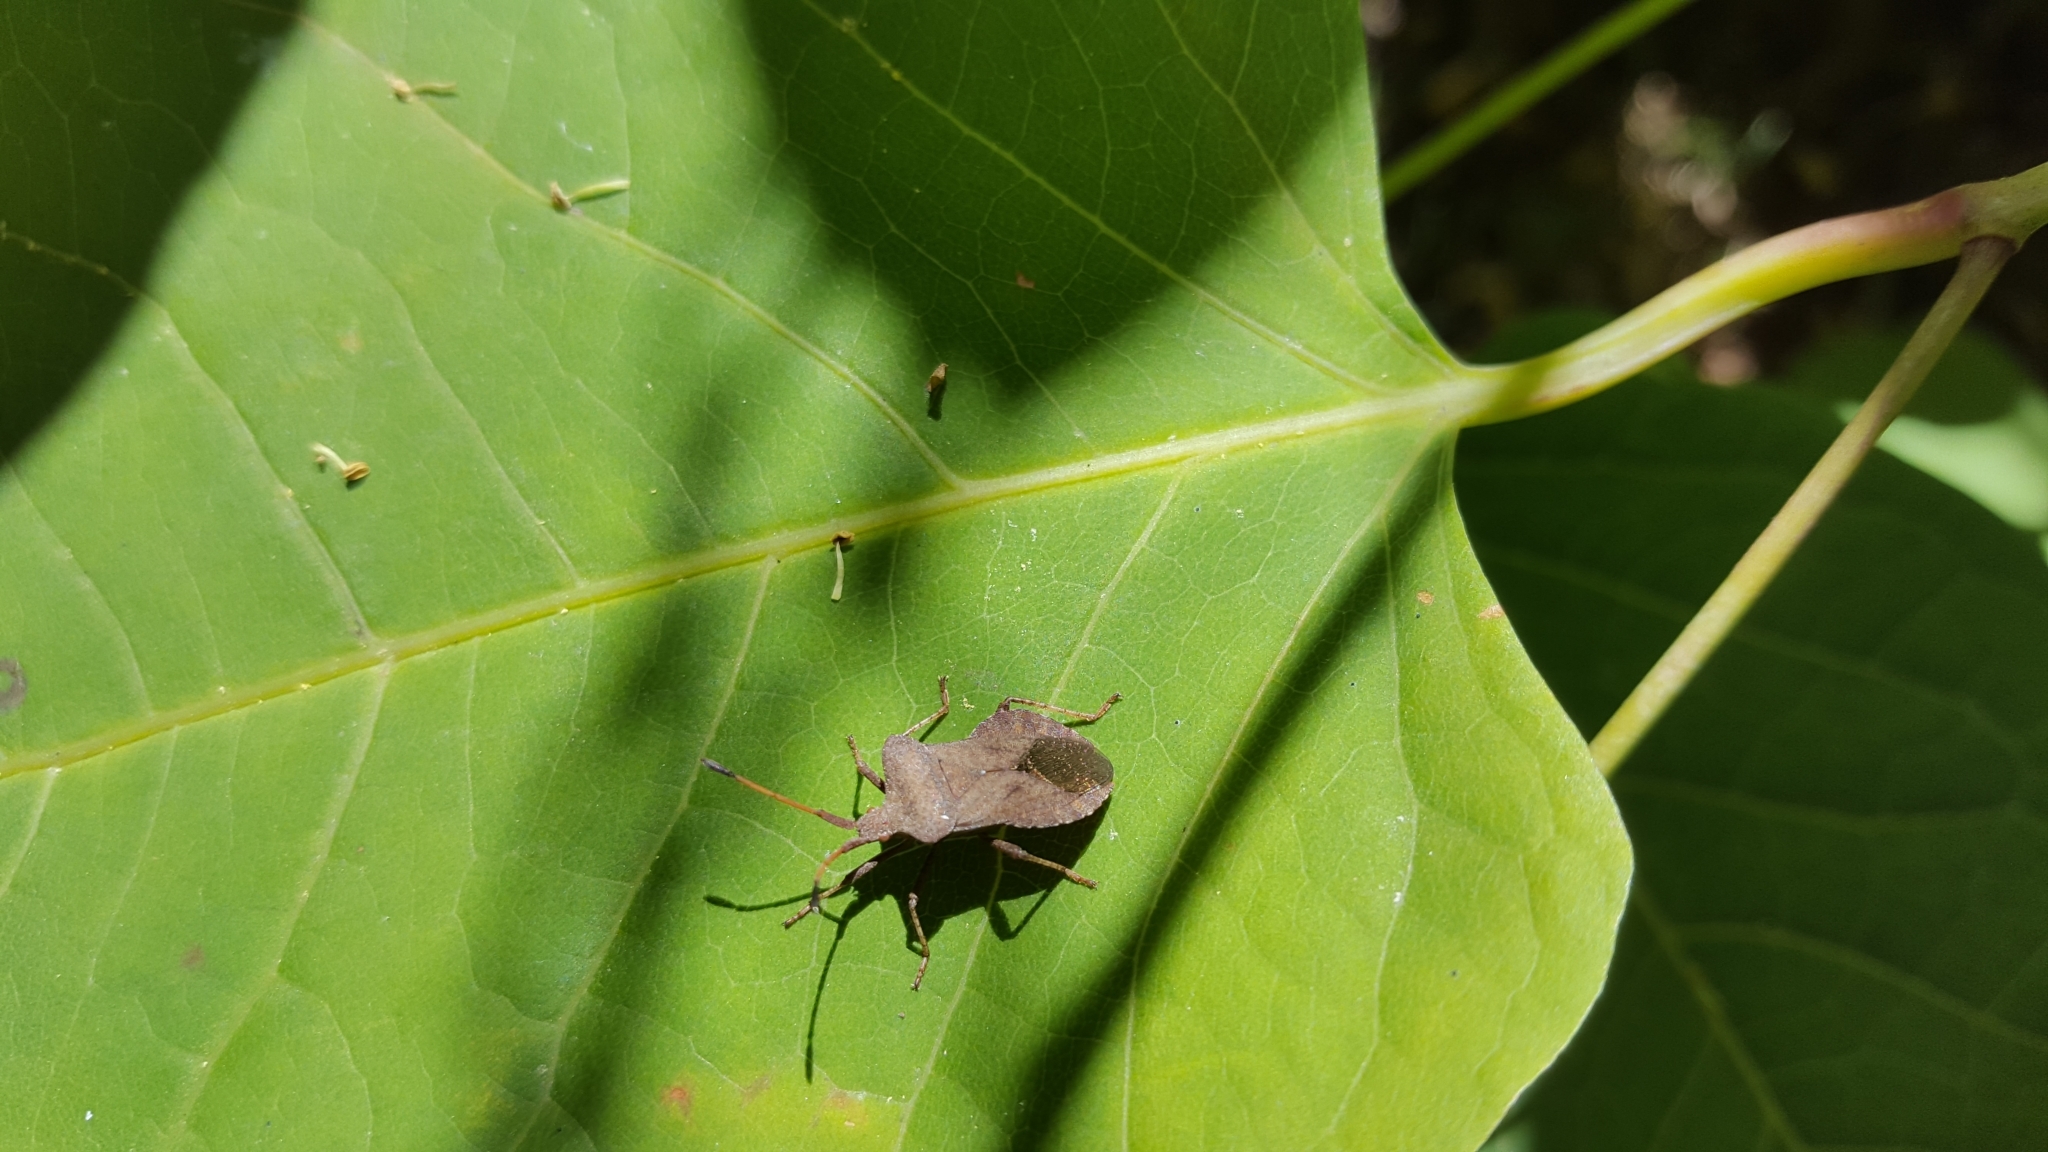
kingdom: Animalia
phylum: Arthropoda
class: Insecta
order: Hemiptera
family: Coreidae
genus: Coreus
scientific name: Coreus marginatus
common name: Dock bug
